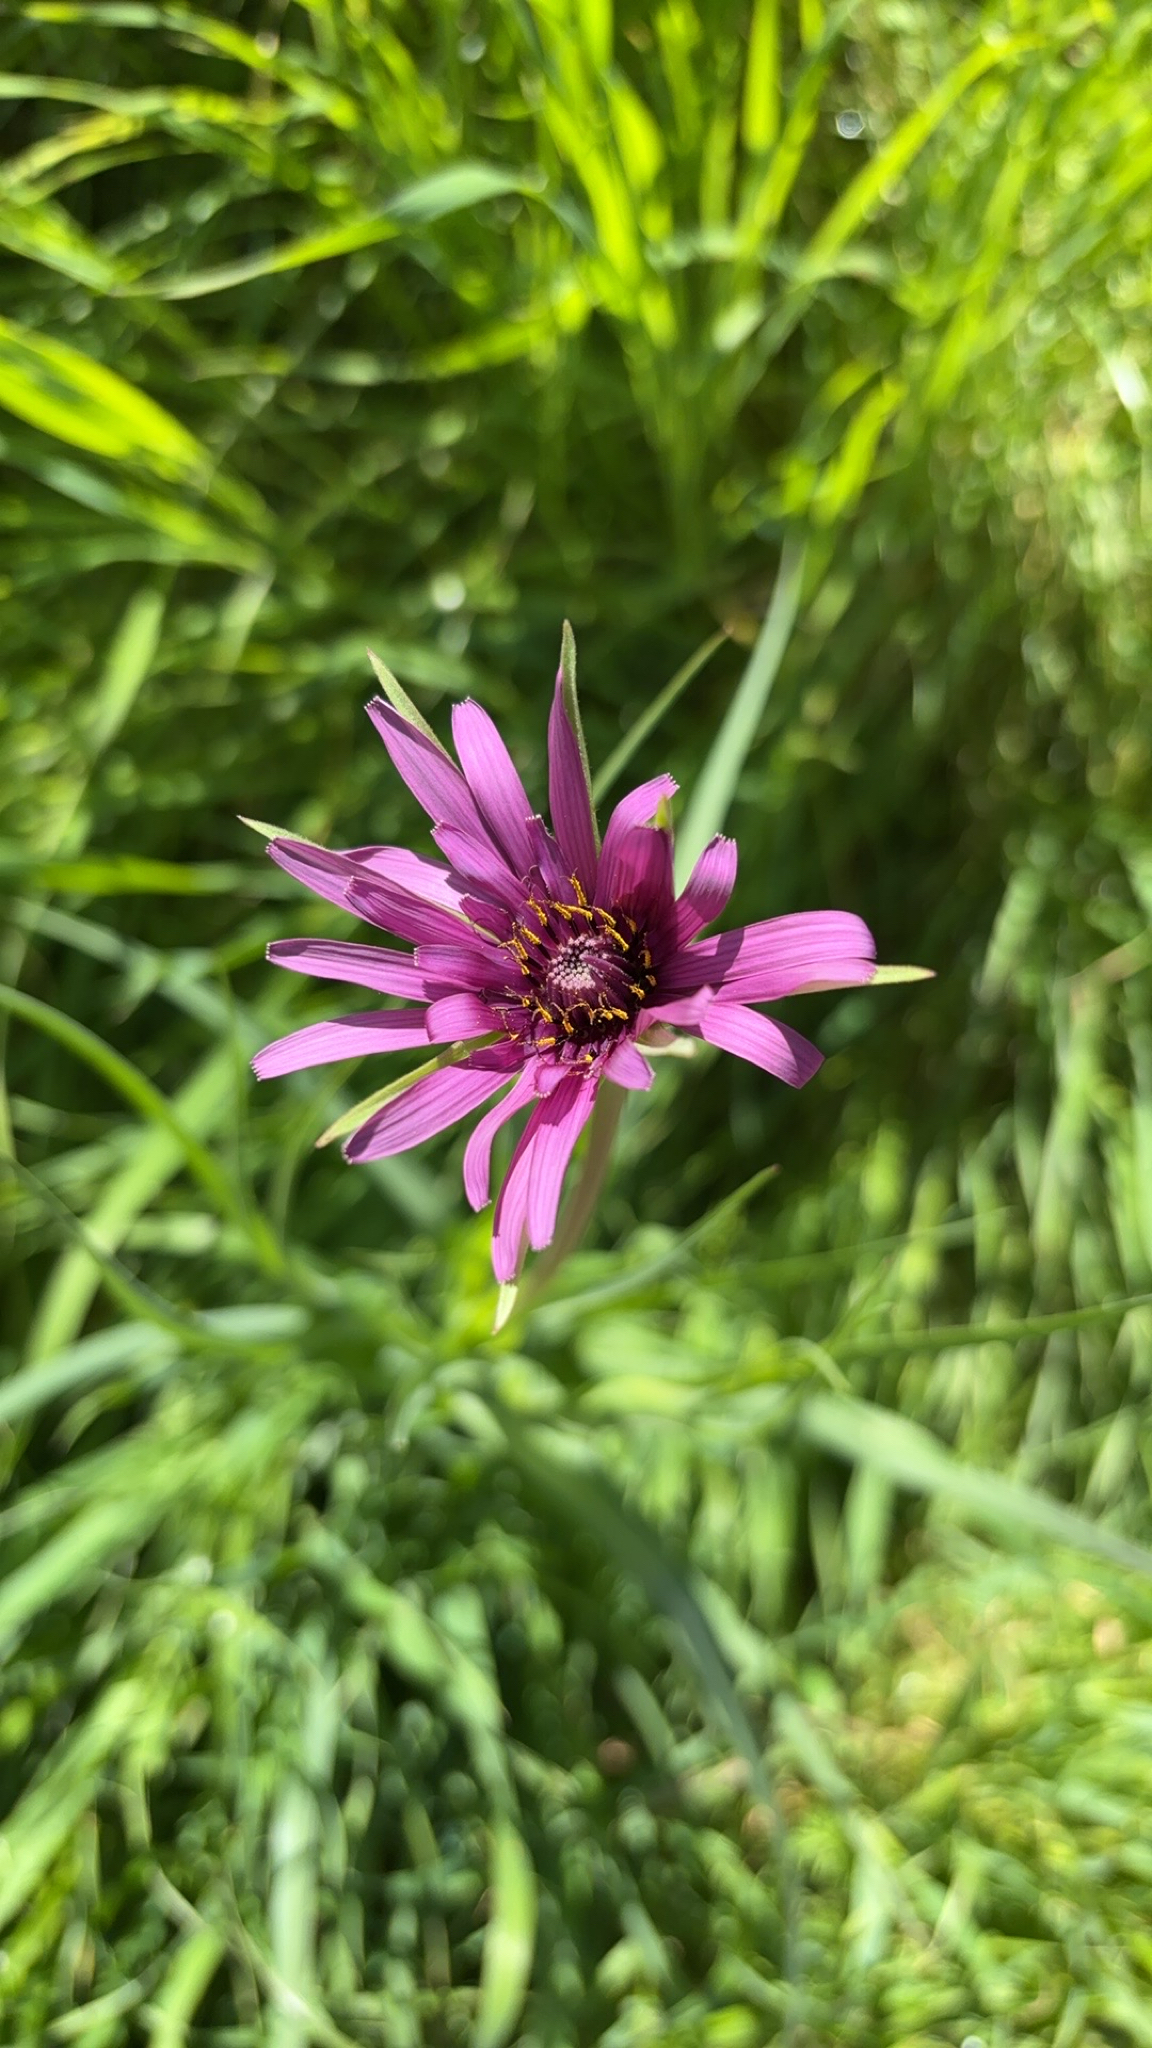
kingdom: Plantae
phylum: Tracheophyta
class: Magnoliopsida
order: Asterales
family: Asteraceae
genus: Tragopogon
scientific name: Tragopogon porrifolius
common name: Salsify
